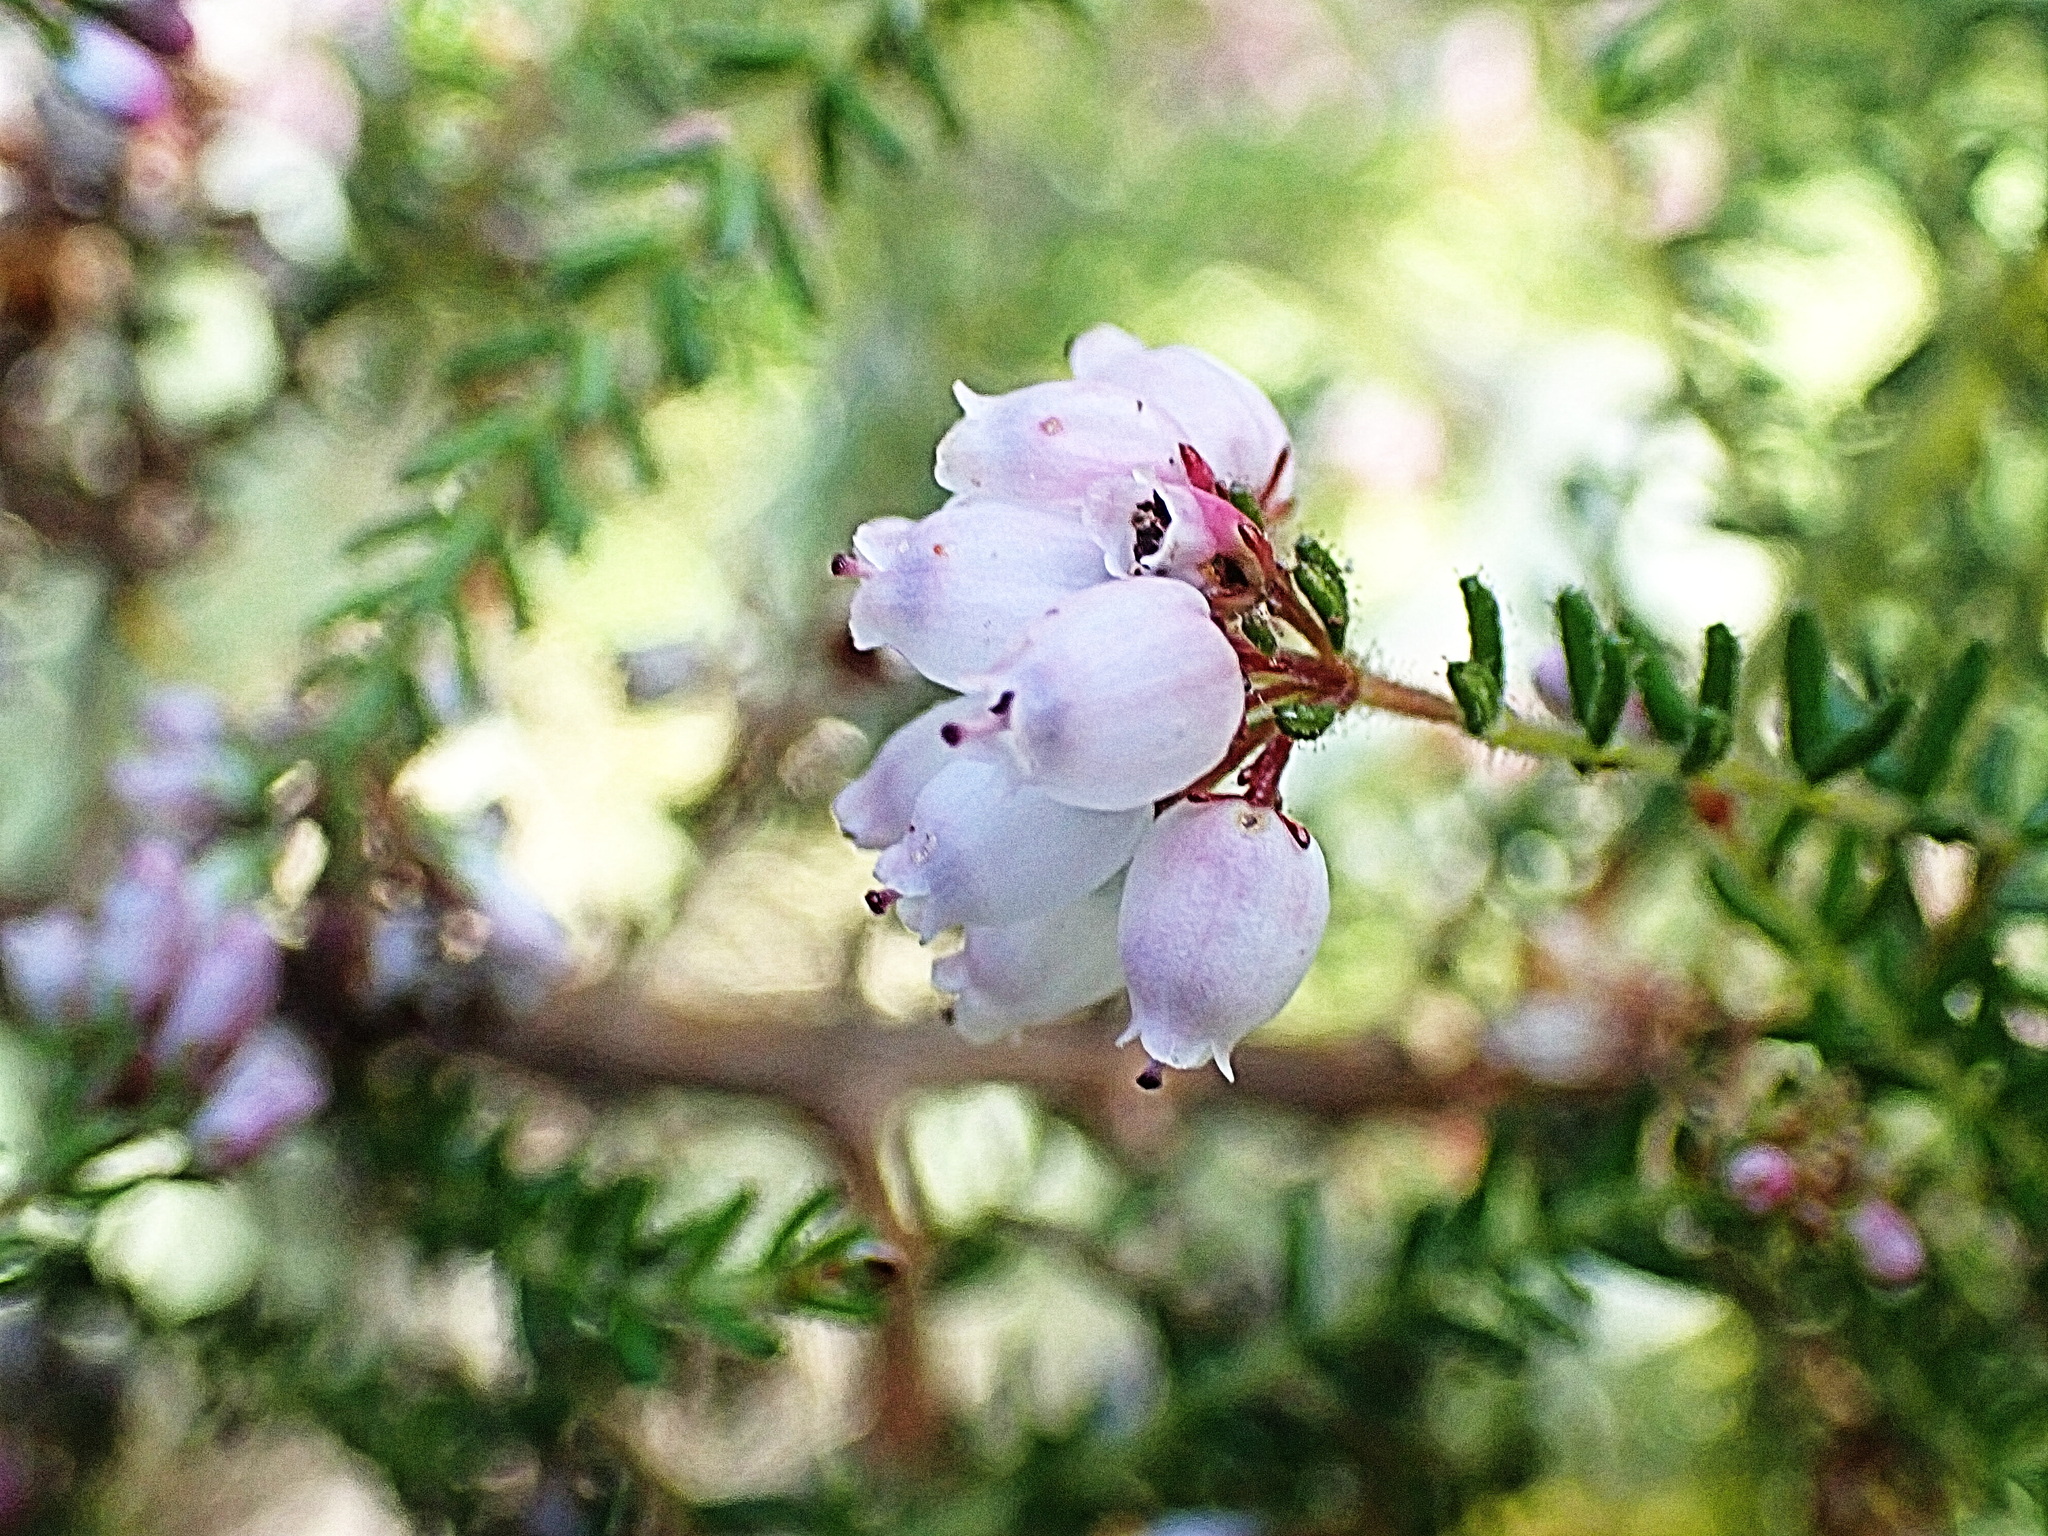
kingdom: Plantae
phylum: Tracheophyta
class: Magnoliopsida
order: Ericales
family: Ericaceae
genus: Erica
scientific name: Erica scabriuscula
